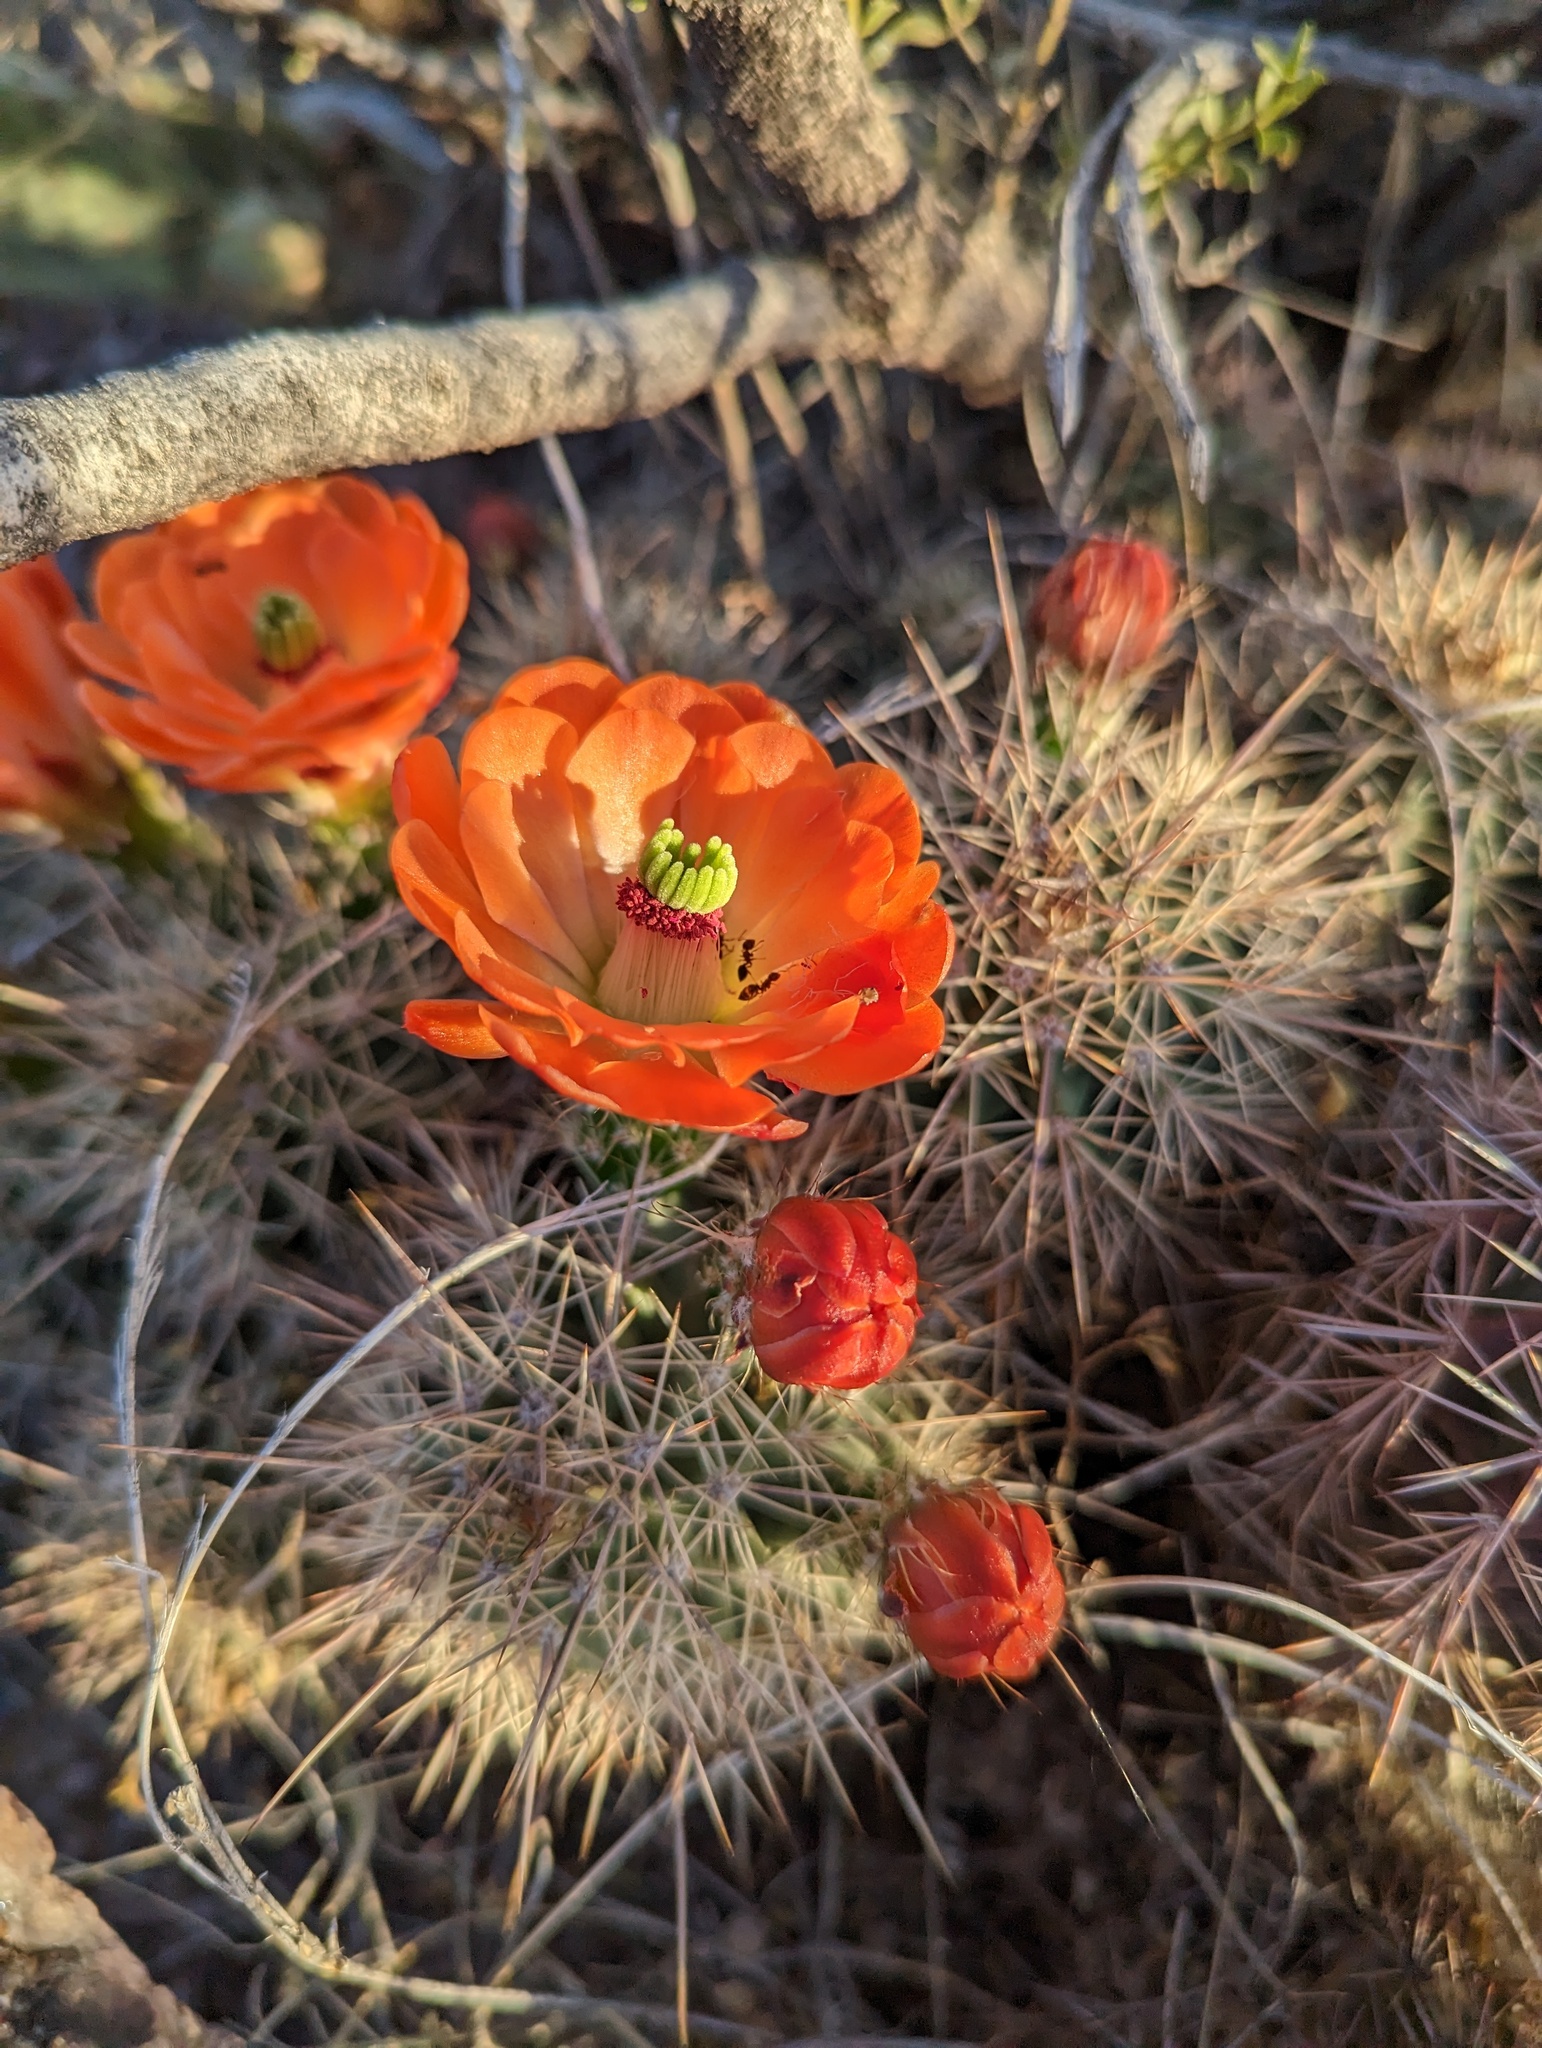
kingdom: Plantae
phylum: Tracheophyta
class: Magnoliopsida
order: Caryophyllales
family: Cactaceae
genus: Echinocereus
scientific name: Echinocereus coccineus
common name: Scarlet hedgehog cactus
